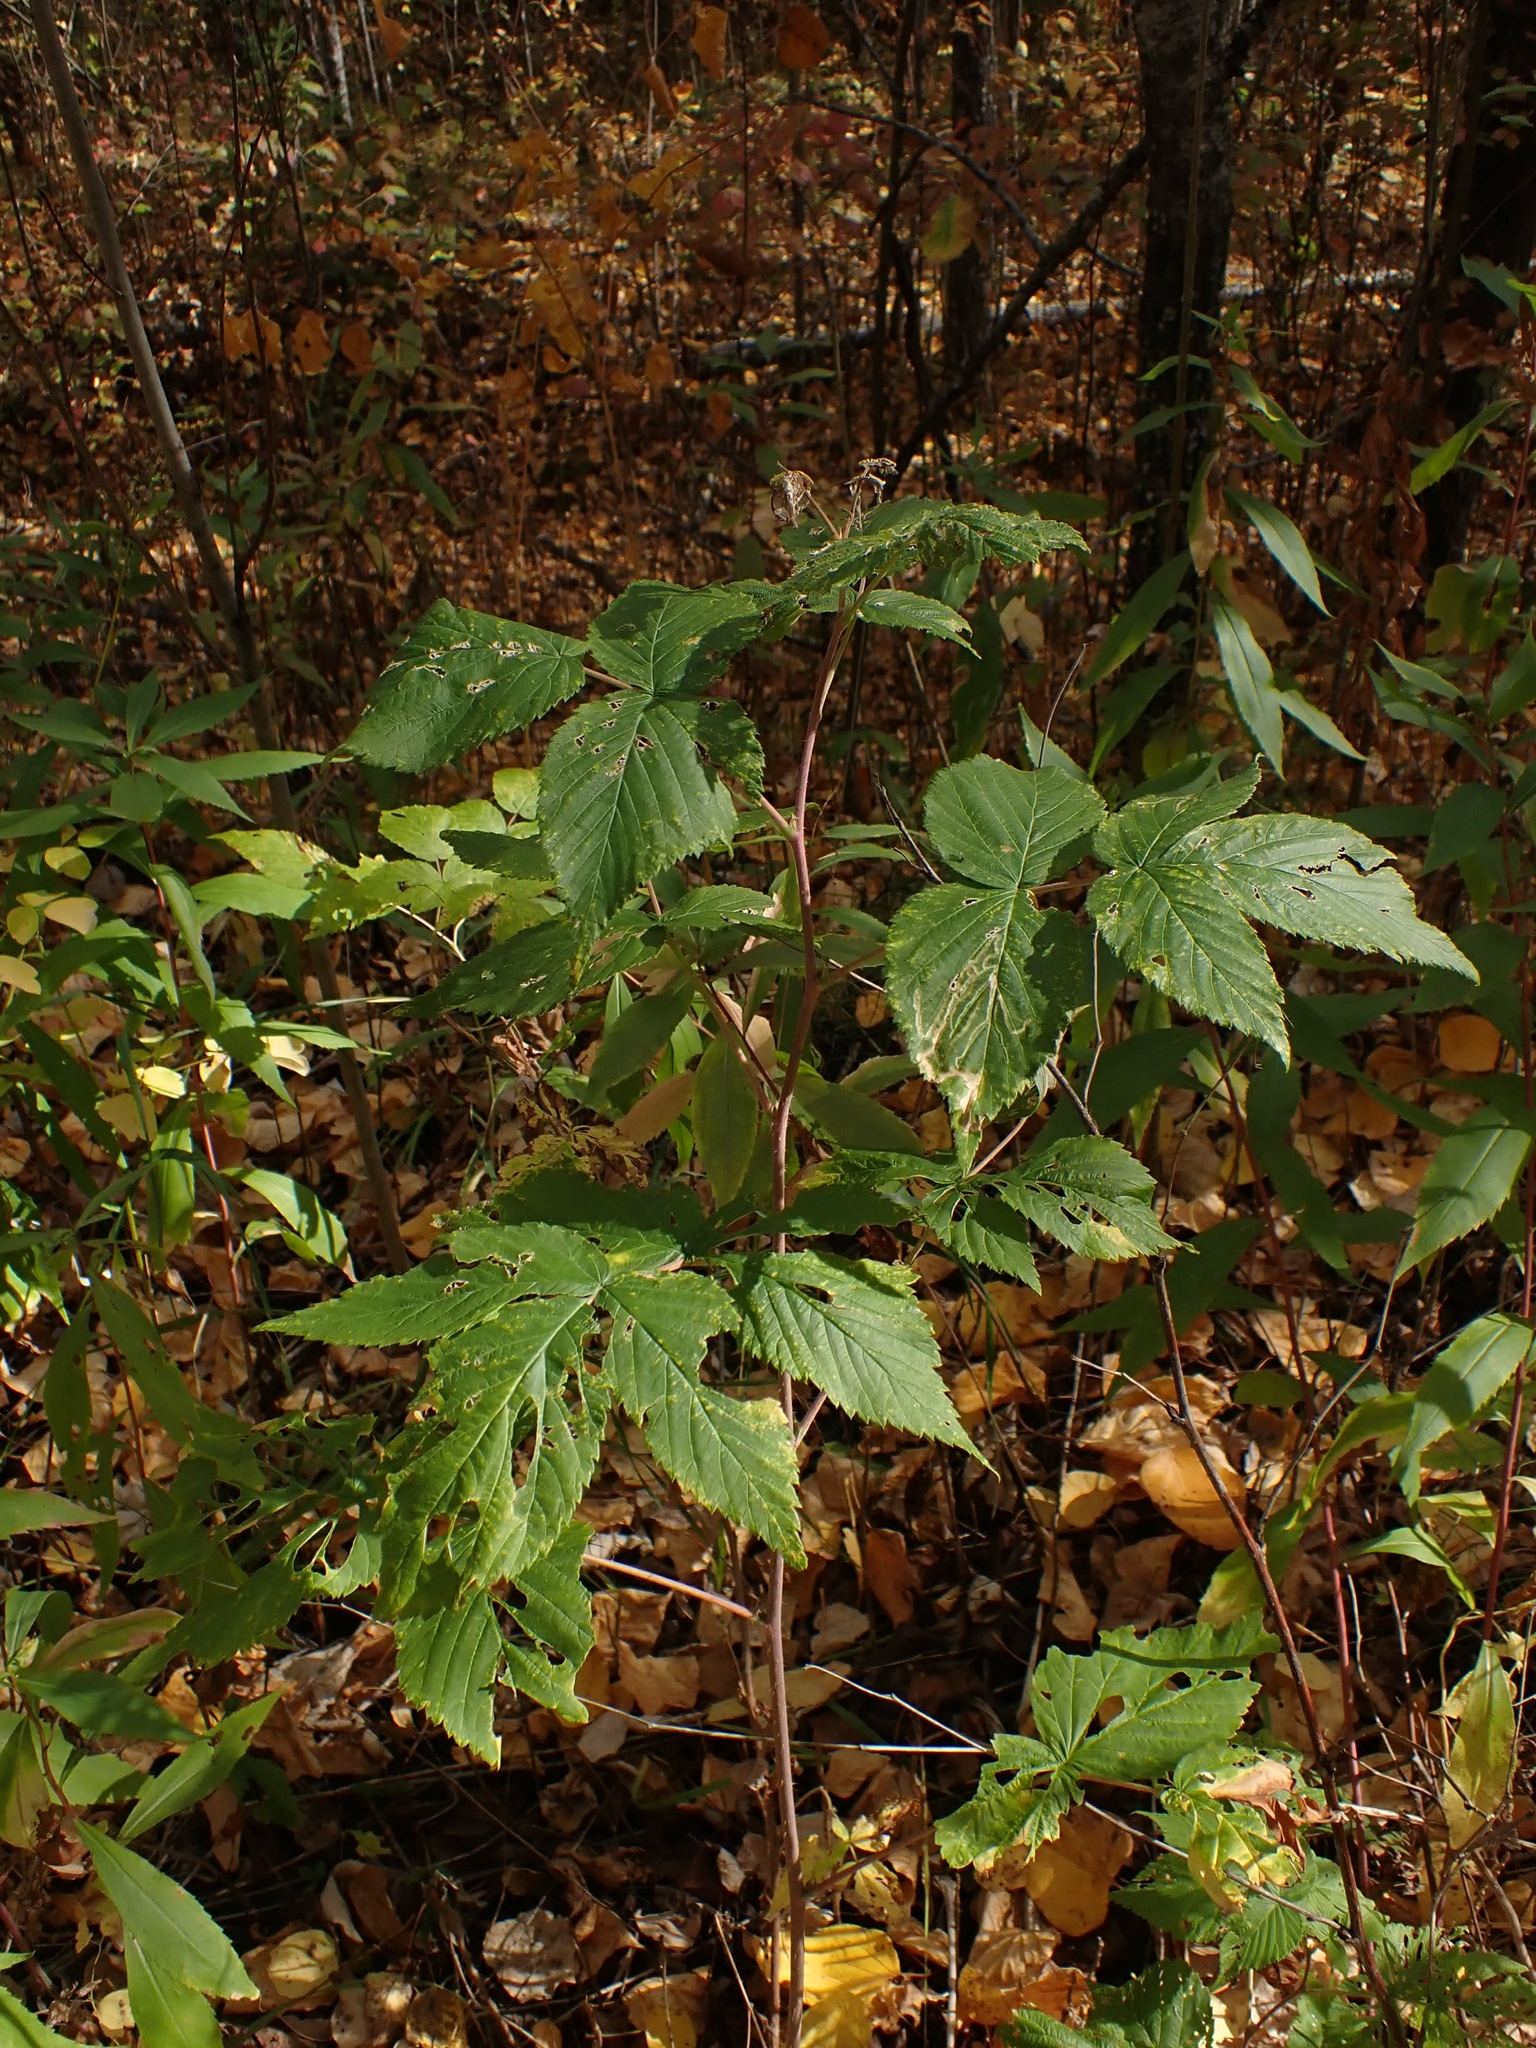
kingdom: Plantae
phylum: Tracheophyta
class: Magnoliopsida
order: Rosales
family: Rosaceae
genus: Rubus
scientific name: Rubus idaeus
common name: Raspberry
